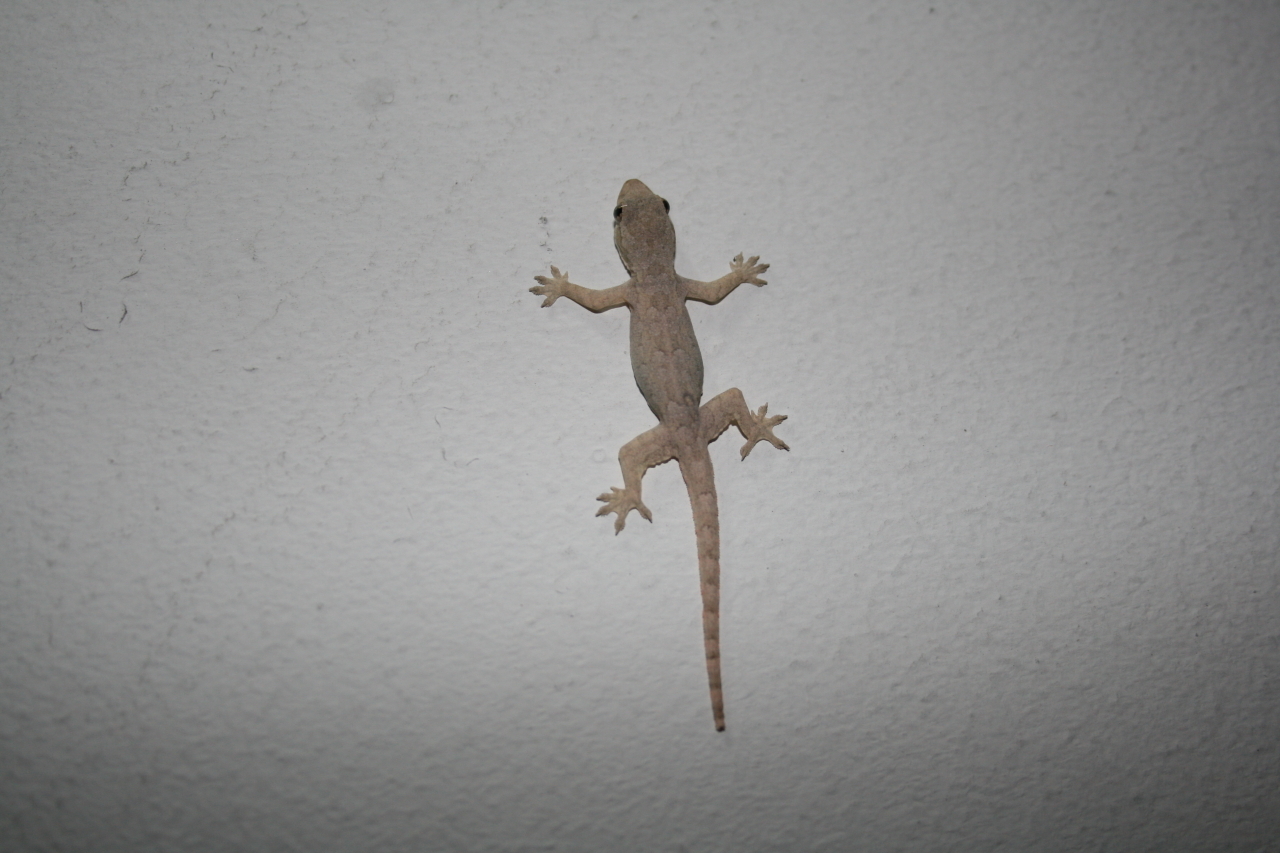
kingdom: Animalia
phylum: Chordata
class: Squamata
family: Gekkonidae
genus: Hemidactylus
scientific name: Hemidactylus platyurus
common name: Flat-tailed house gecko
